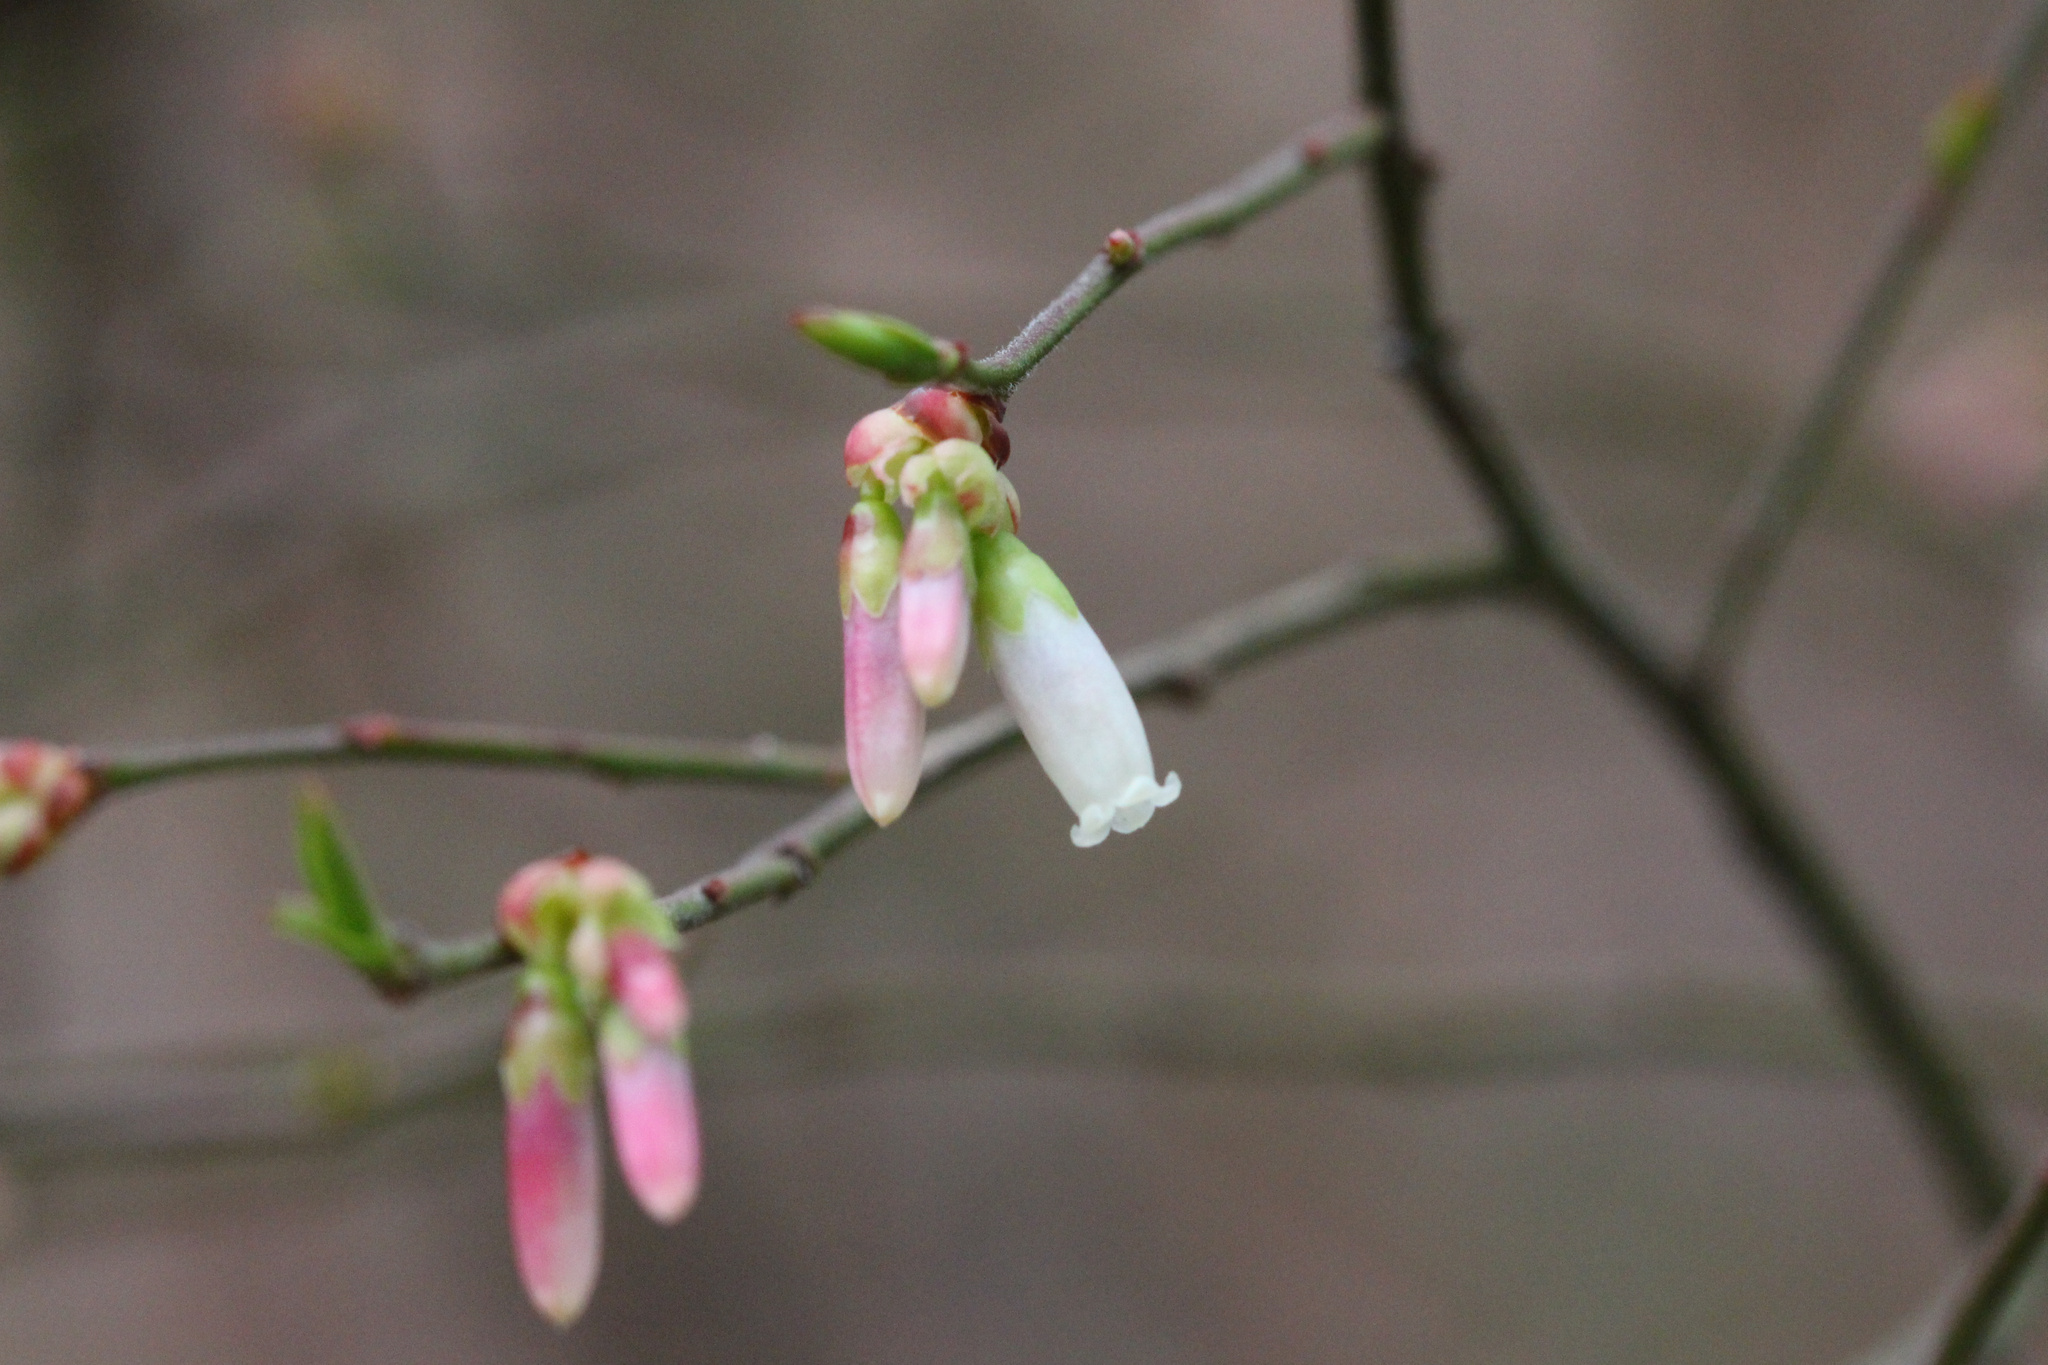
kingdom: Plantae
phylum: Tracheophyta
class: Magnoliopsida
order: Ericales
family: Ericaceae
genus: Vaccinium
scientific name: Vaccinium corymbosum
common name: Blueberry
